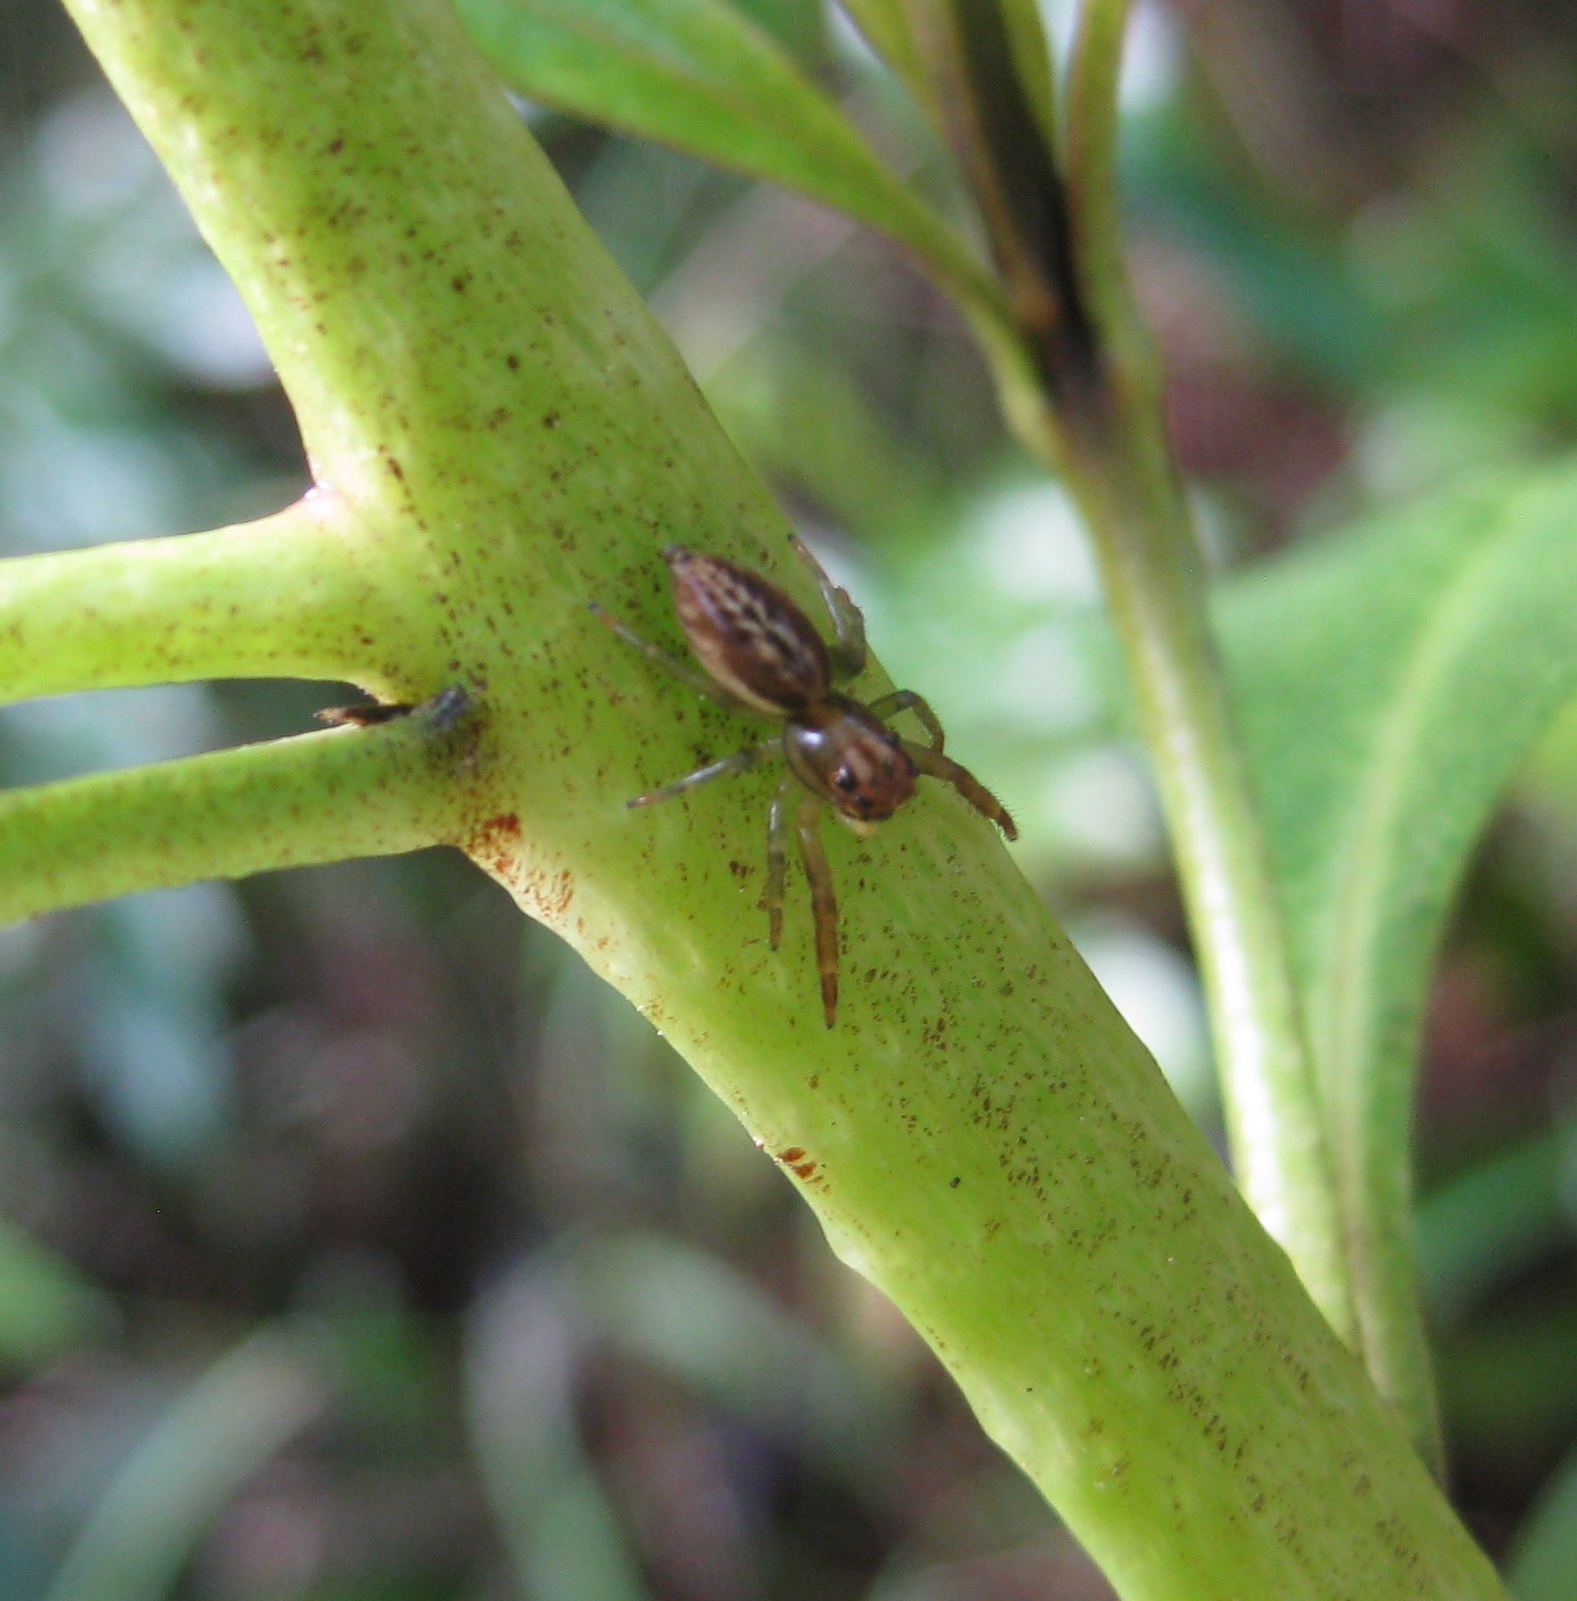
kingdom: Animalia
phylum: Arthropoda
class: Arachnida
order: Araneae
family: Salticidae
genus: Trite
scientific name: Trite mustilina
